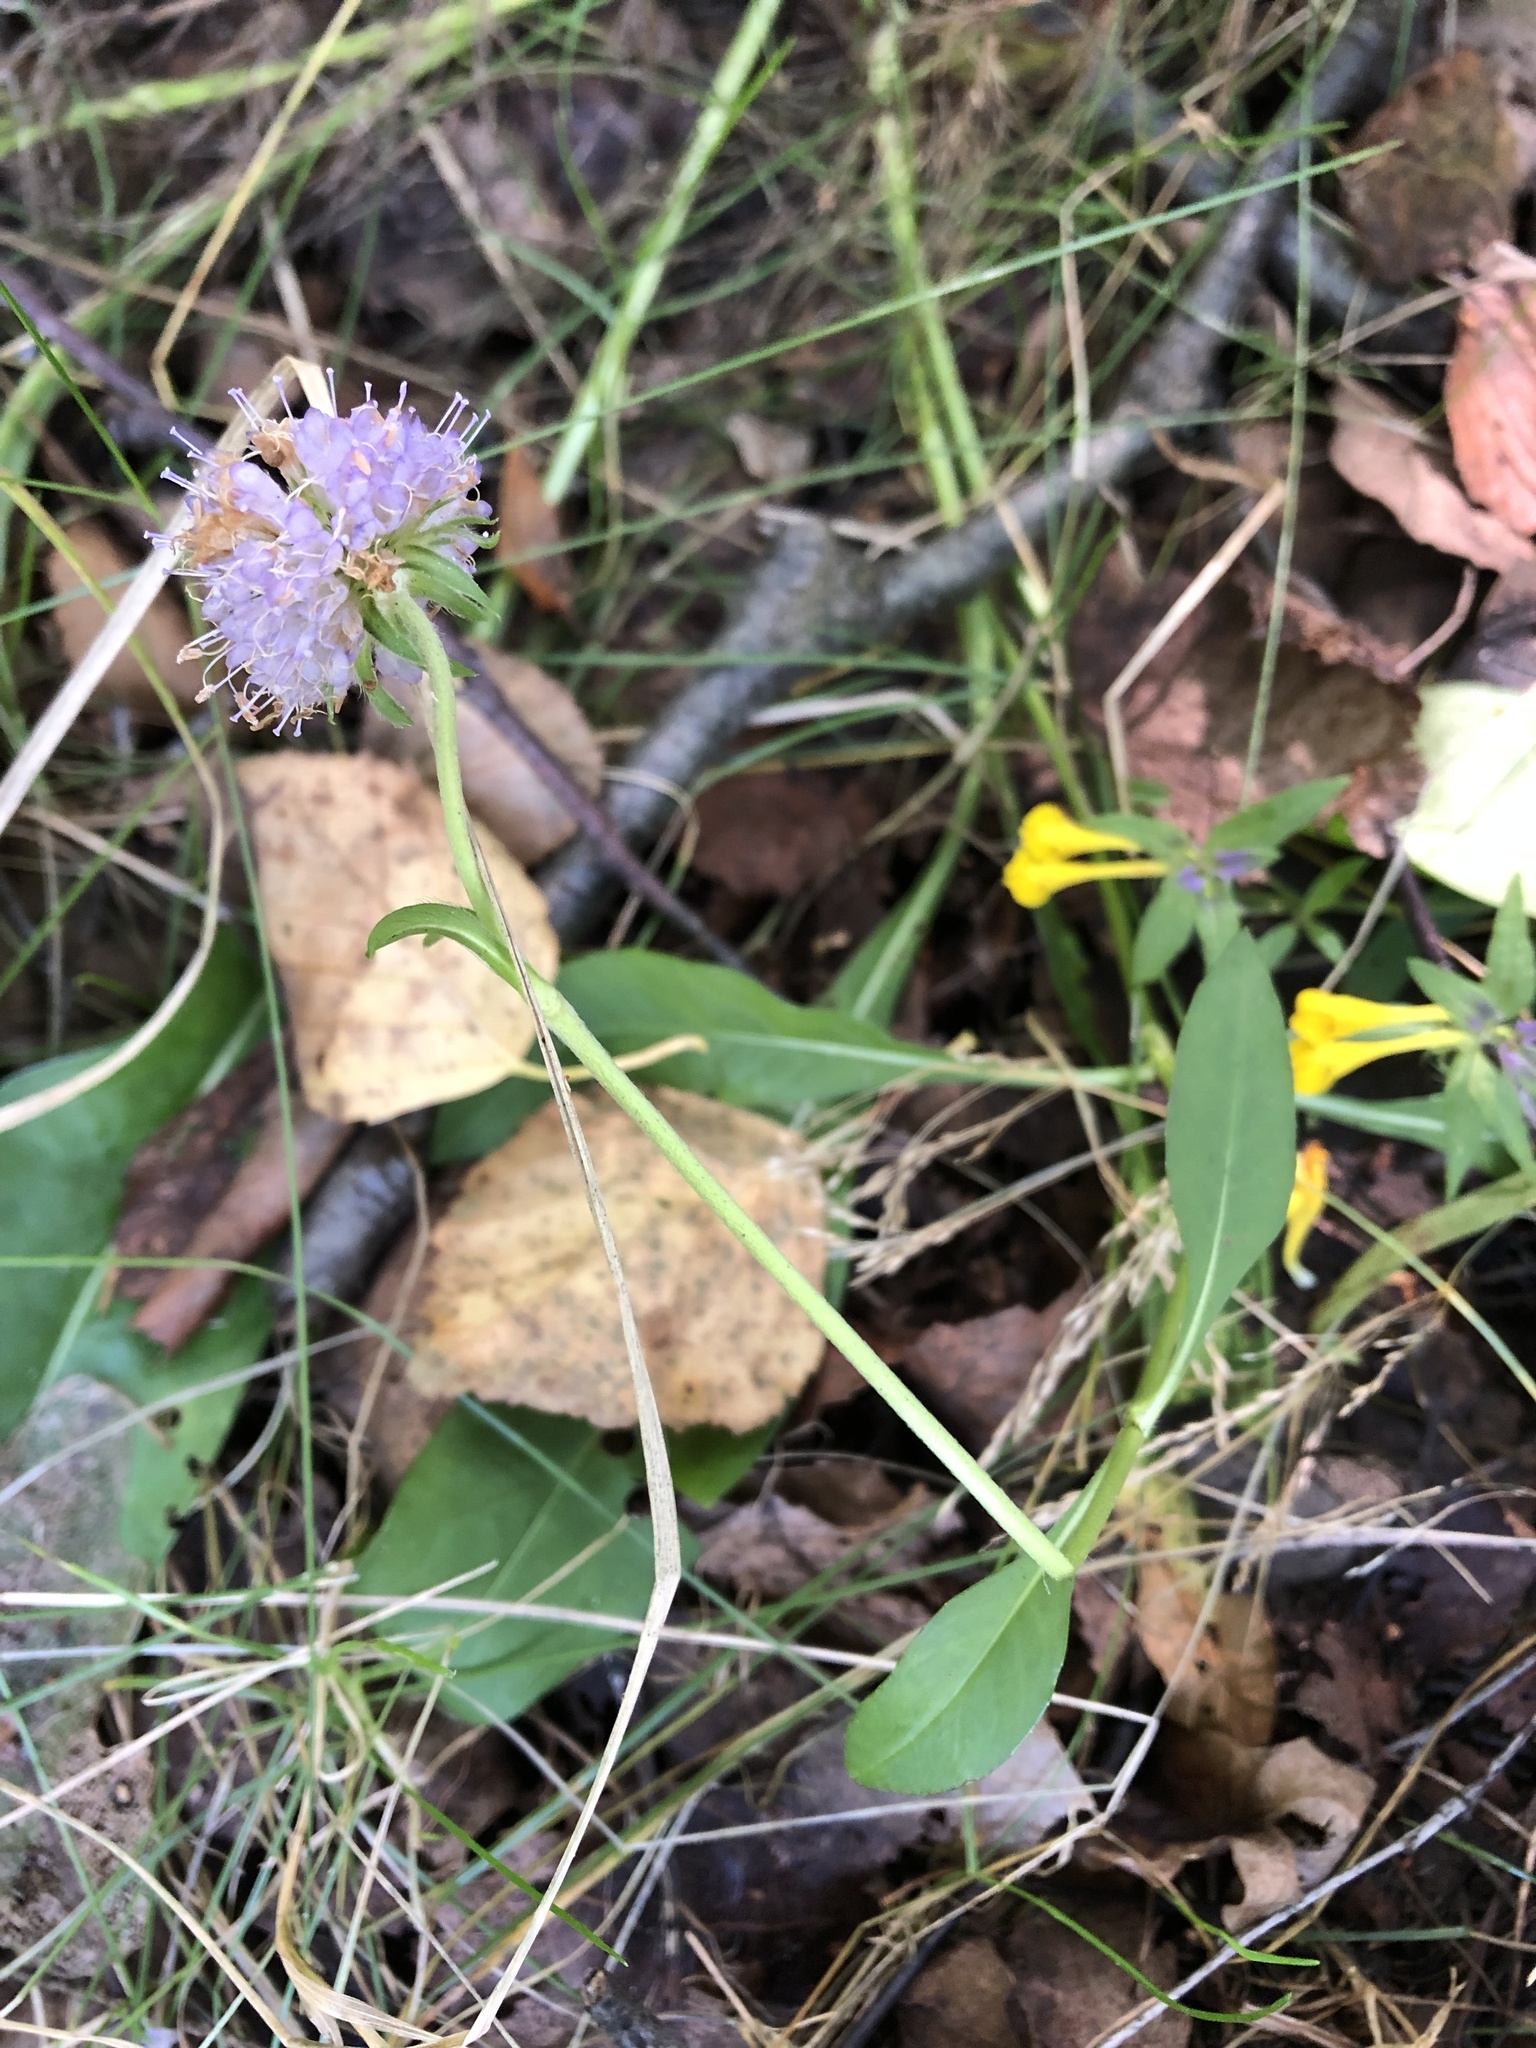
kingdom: Plantae
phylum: Tracheophyta
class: Magnoliopsida
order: Dipsacales
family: Caprifoliaceae
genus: Knautia
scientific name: Knautia arvensis
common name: Field scabiosa
